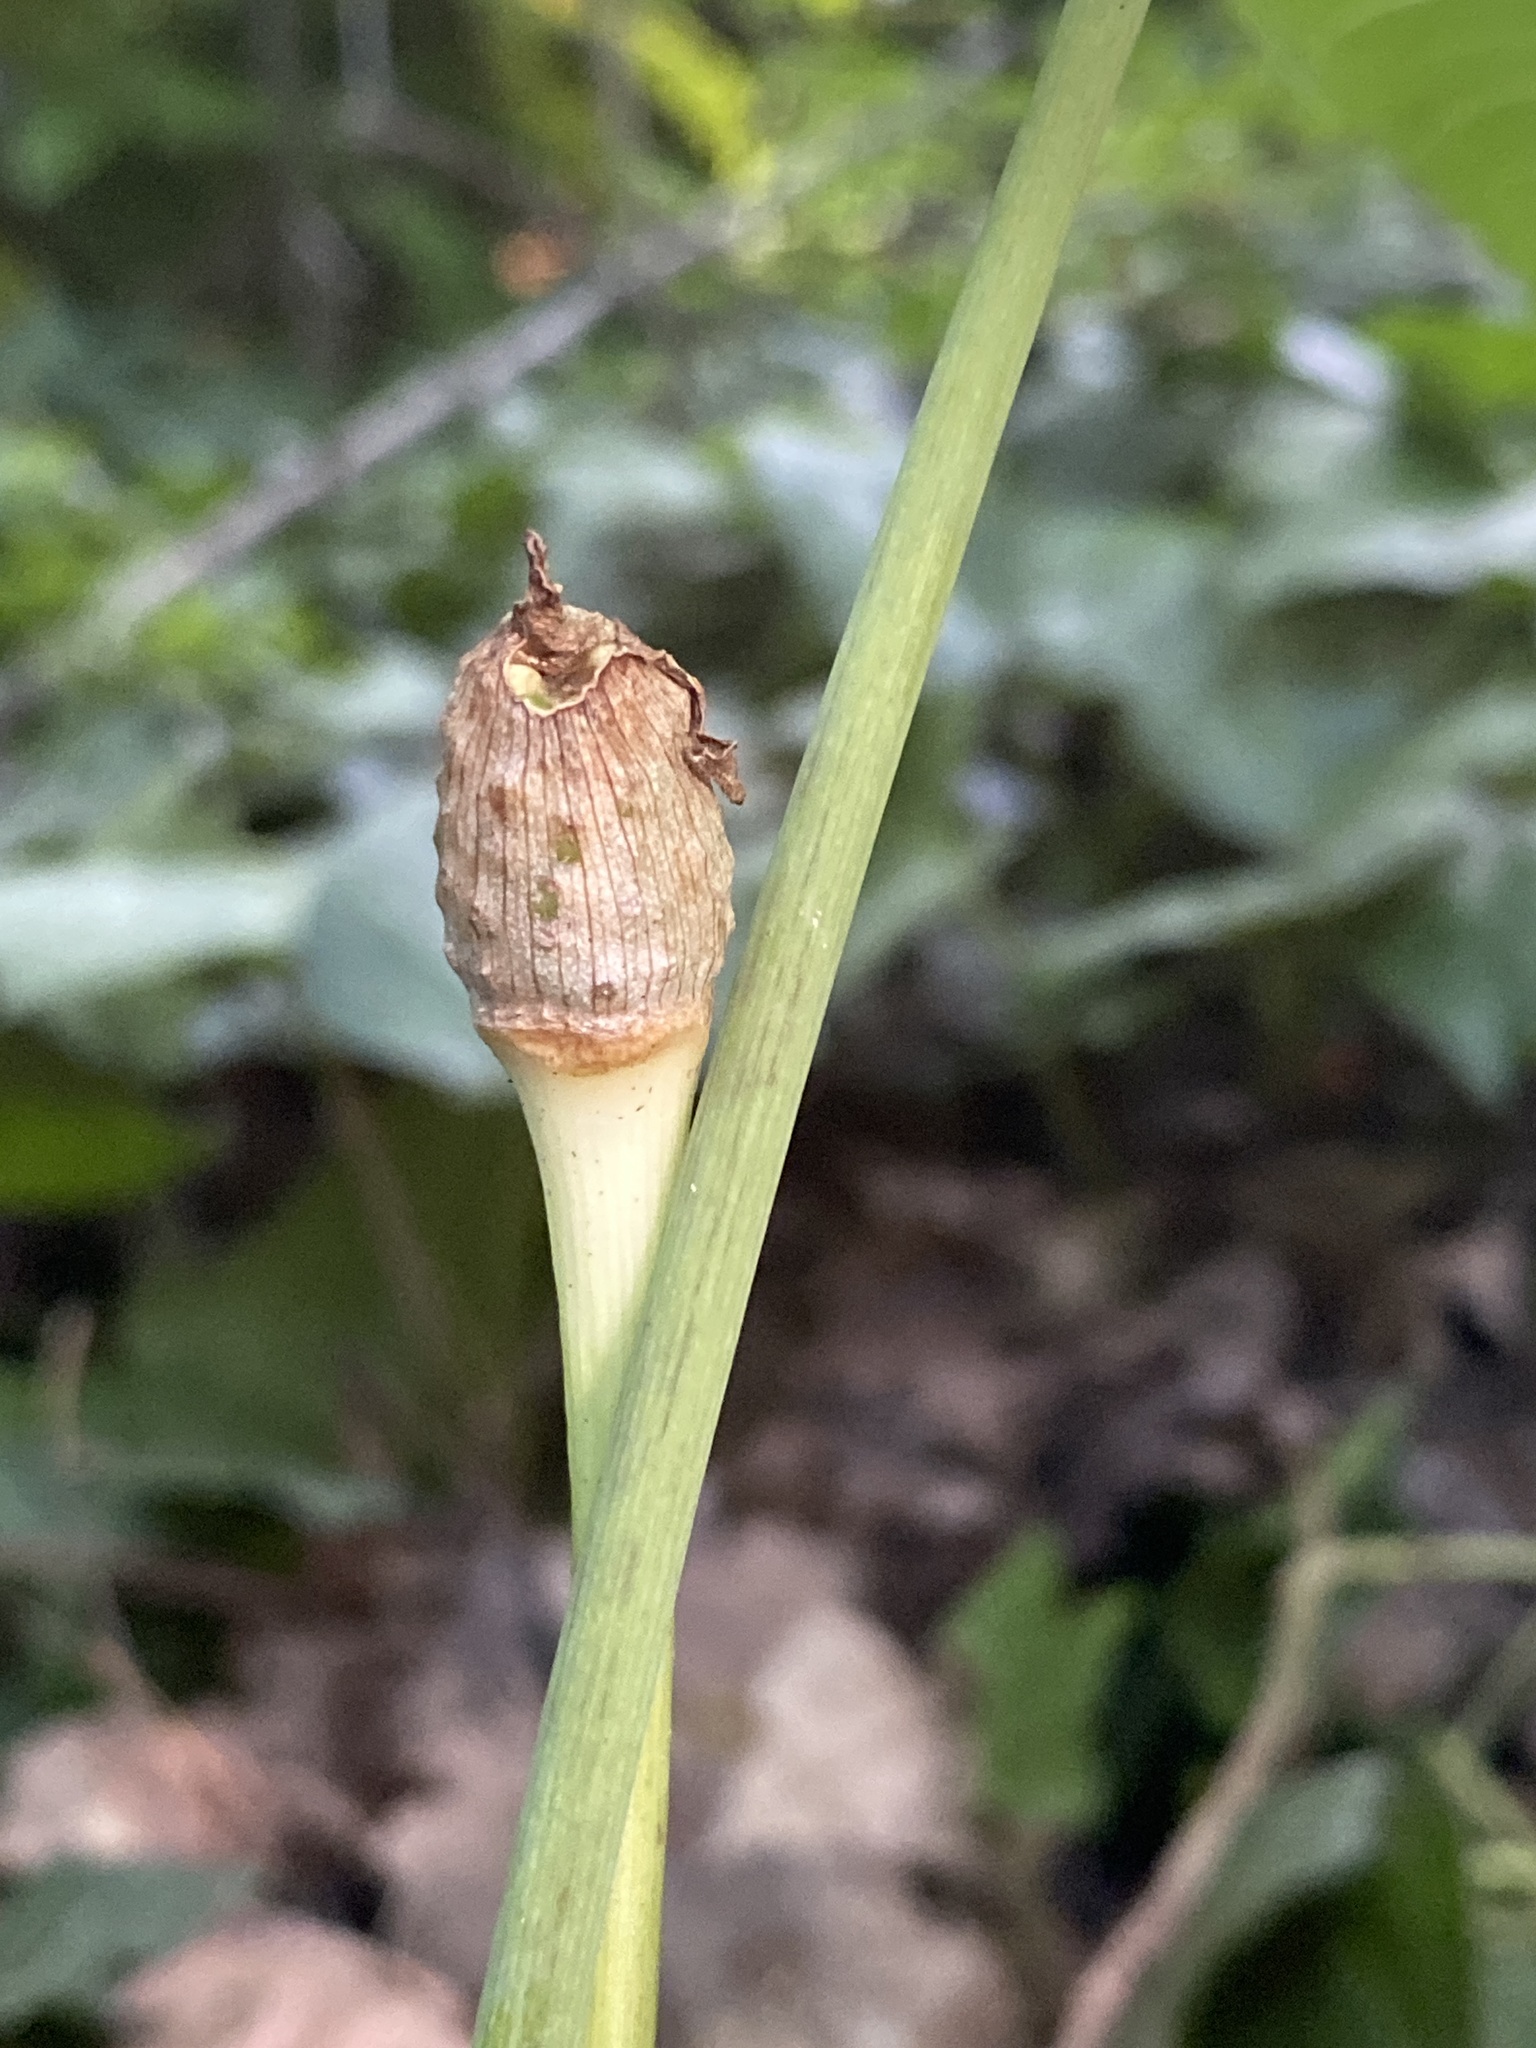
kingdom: Plantae
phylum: Tracheophyta
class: Liliopsida
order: Alismatales
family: Araceae
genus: Arisaema
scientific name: Arisaema quinatum
